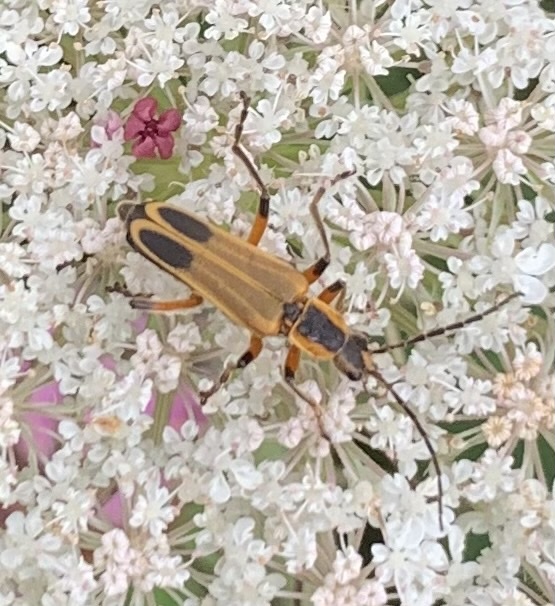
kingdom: Animalia
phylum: Arthropoda
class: Insecta
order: Coleoptera
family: Cantharidae
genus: Chauliognathus
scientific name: Chauliognathus marginatus
